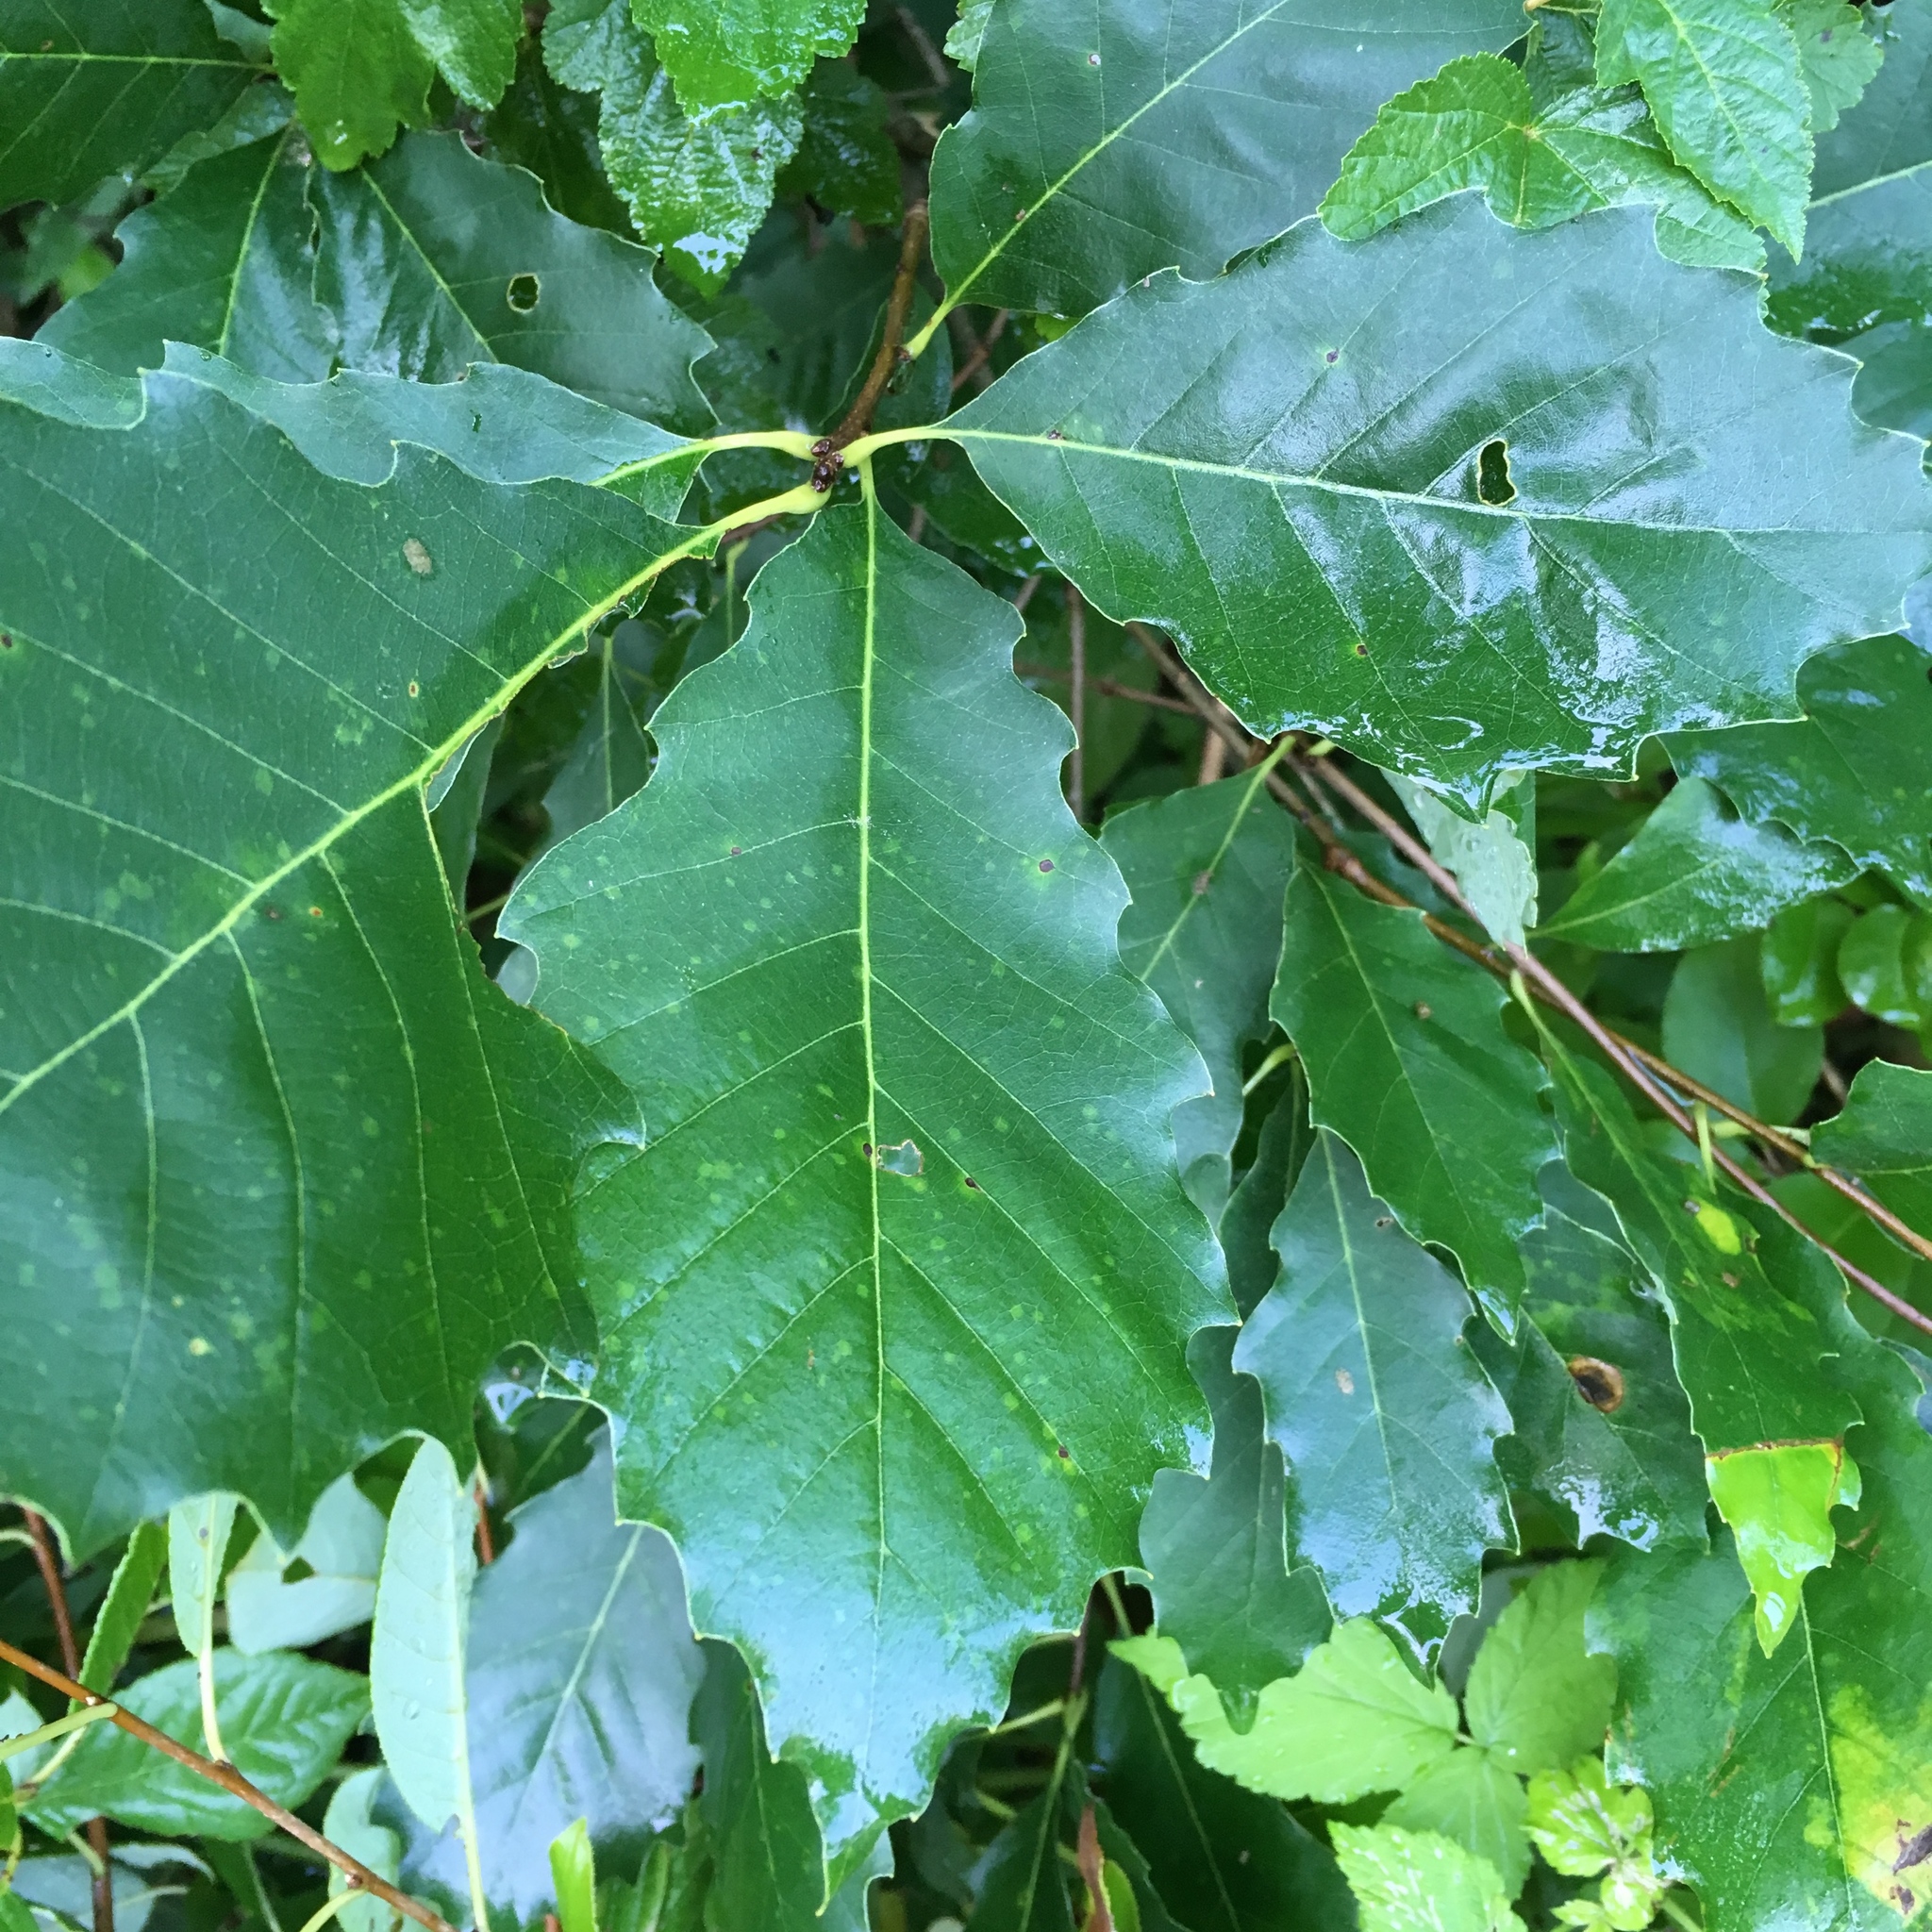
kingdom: Plantae
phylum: Tracheophyta
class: Magnoliopsida
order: Fagales
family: Fagaceae
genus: Quercus
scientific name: Quercus muehlenbergii
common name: Chinkapin oak
